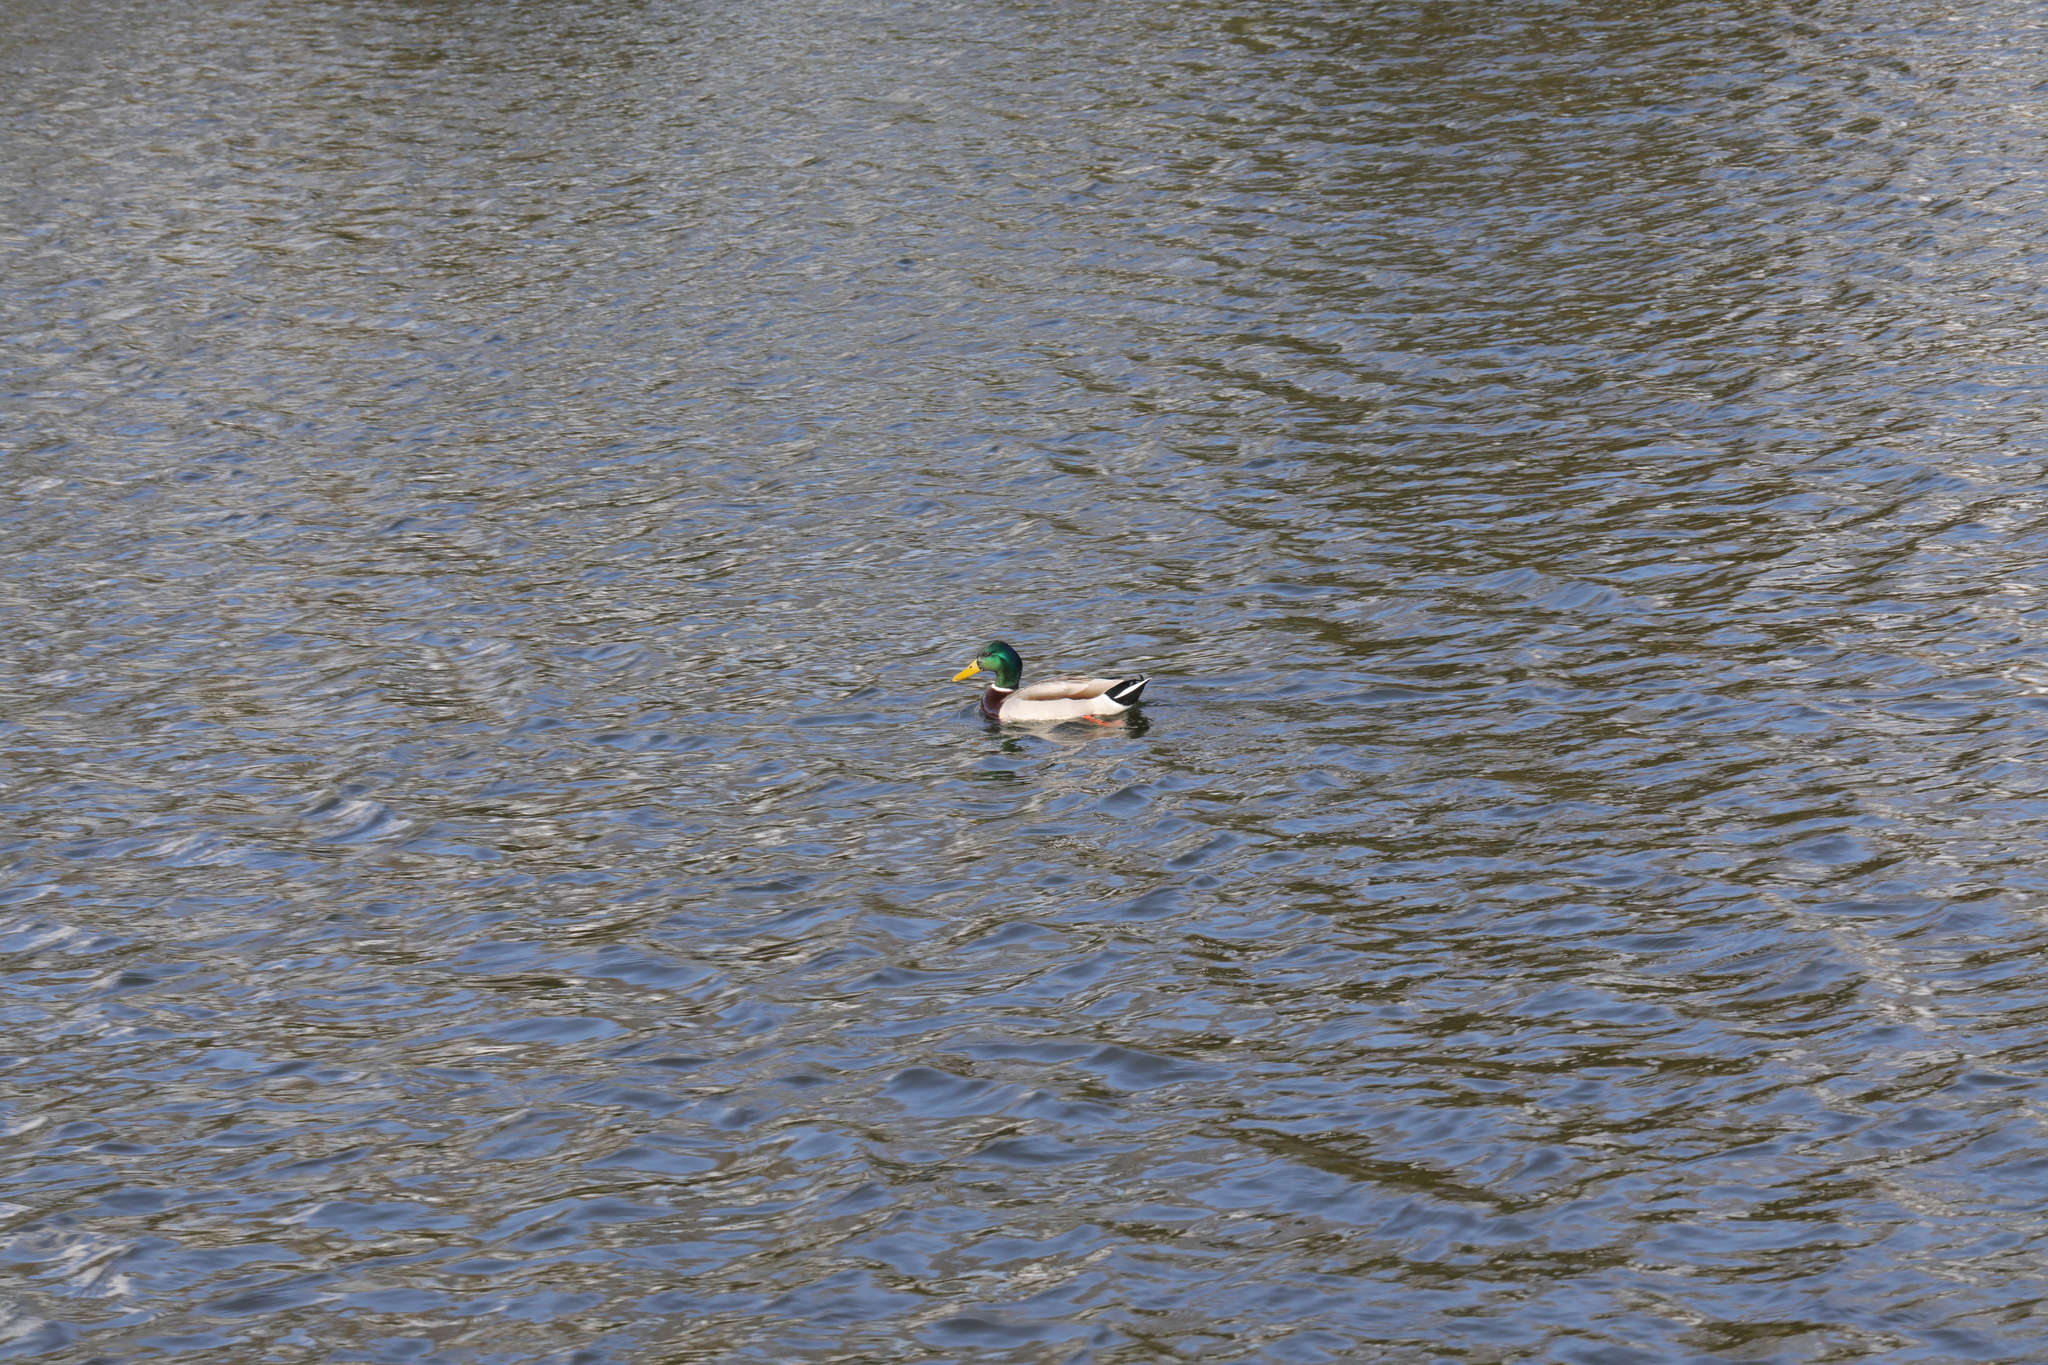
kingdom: Animalia
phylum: Chordata
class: Aves
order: Anseriformes
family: Anatidae
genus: Anas
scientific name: Anas platyrhynchos
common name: Mallard
